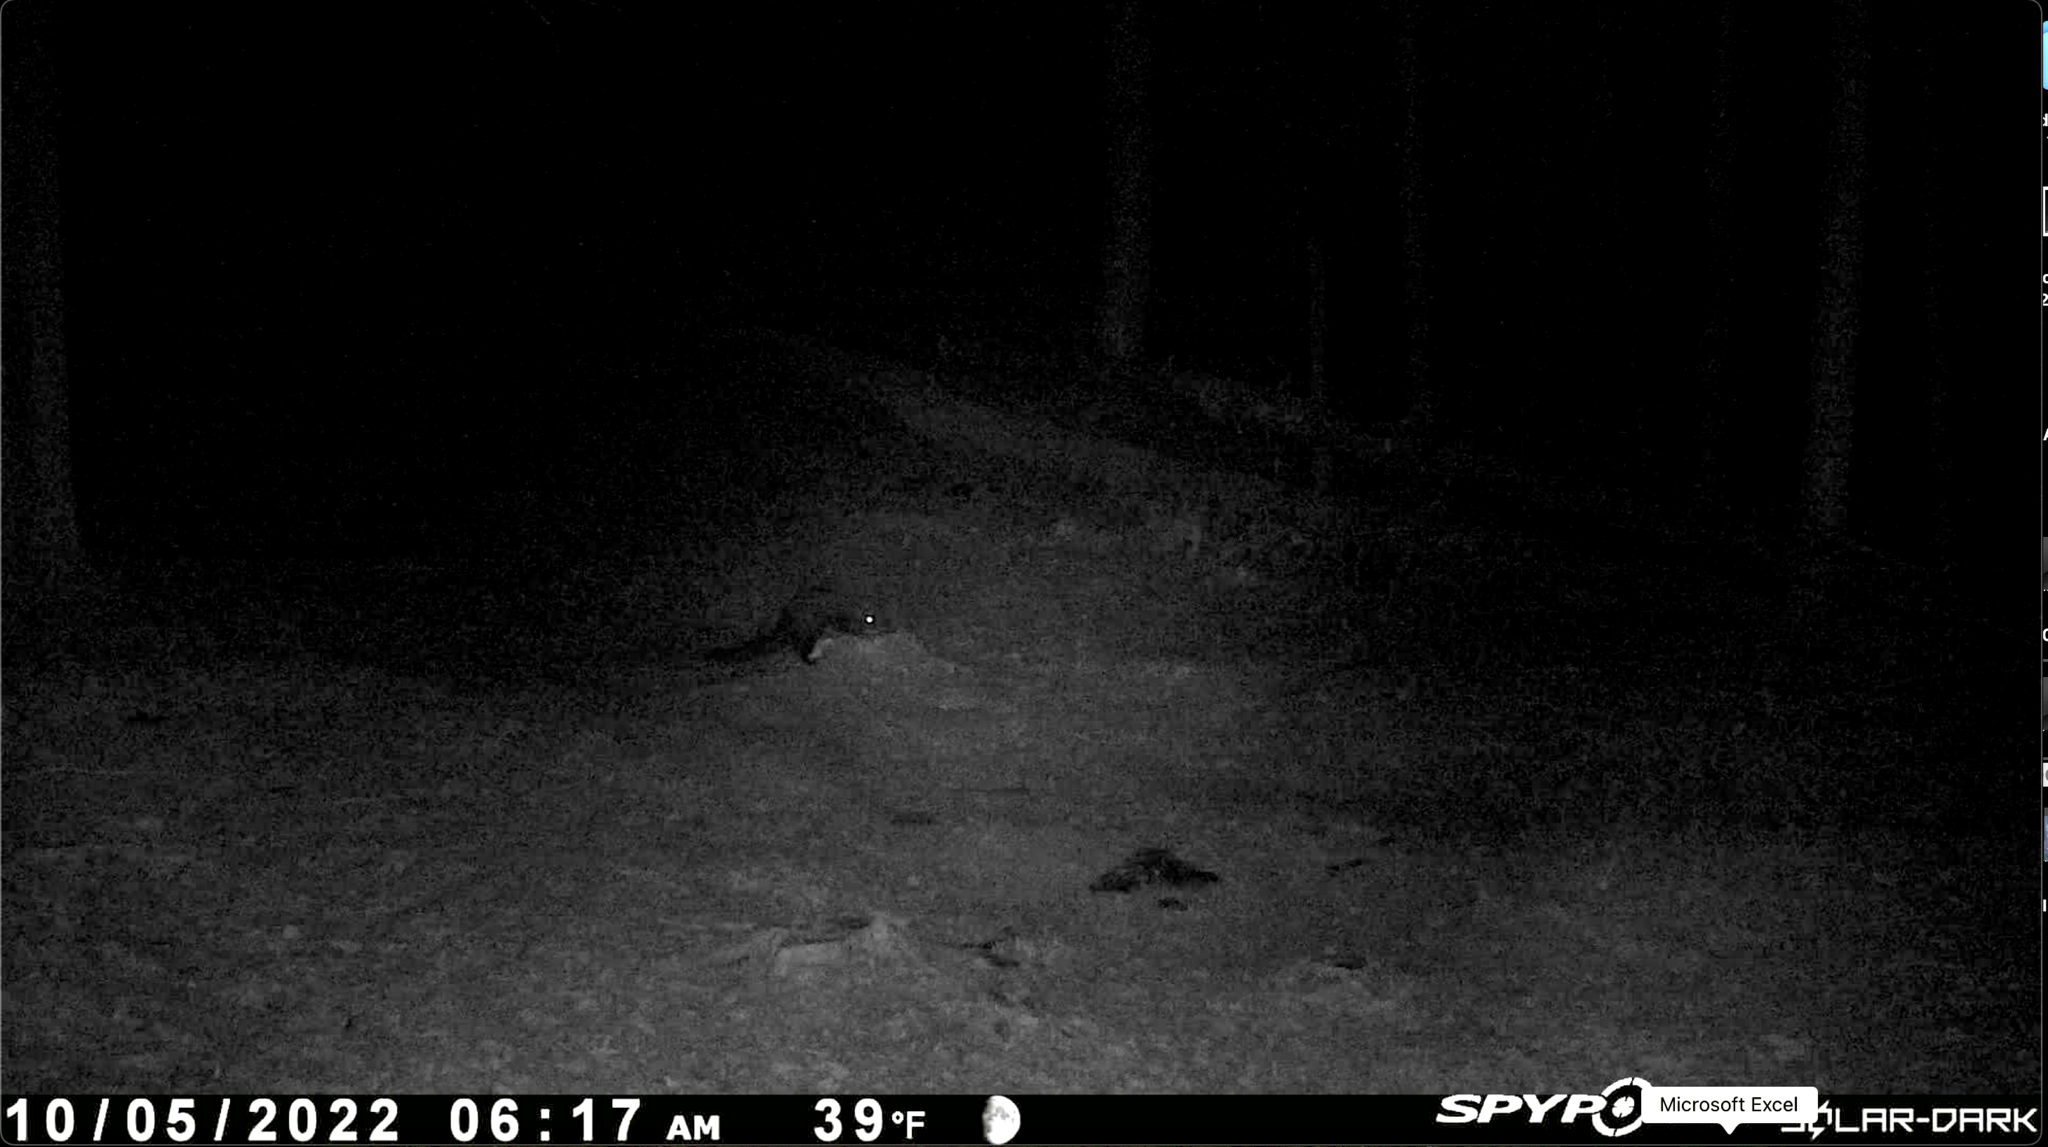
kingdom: Animalia
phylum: Chordata
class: Mammalia
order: Carnivora
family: Mustelidae
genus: Pekania
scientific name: Pekania pennanti
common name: Fisher
